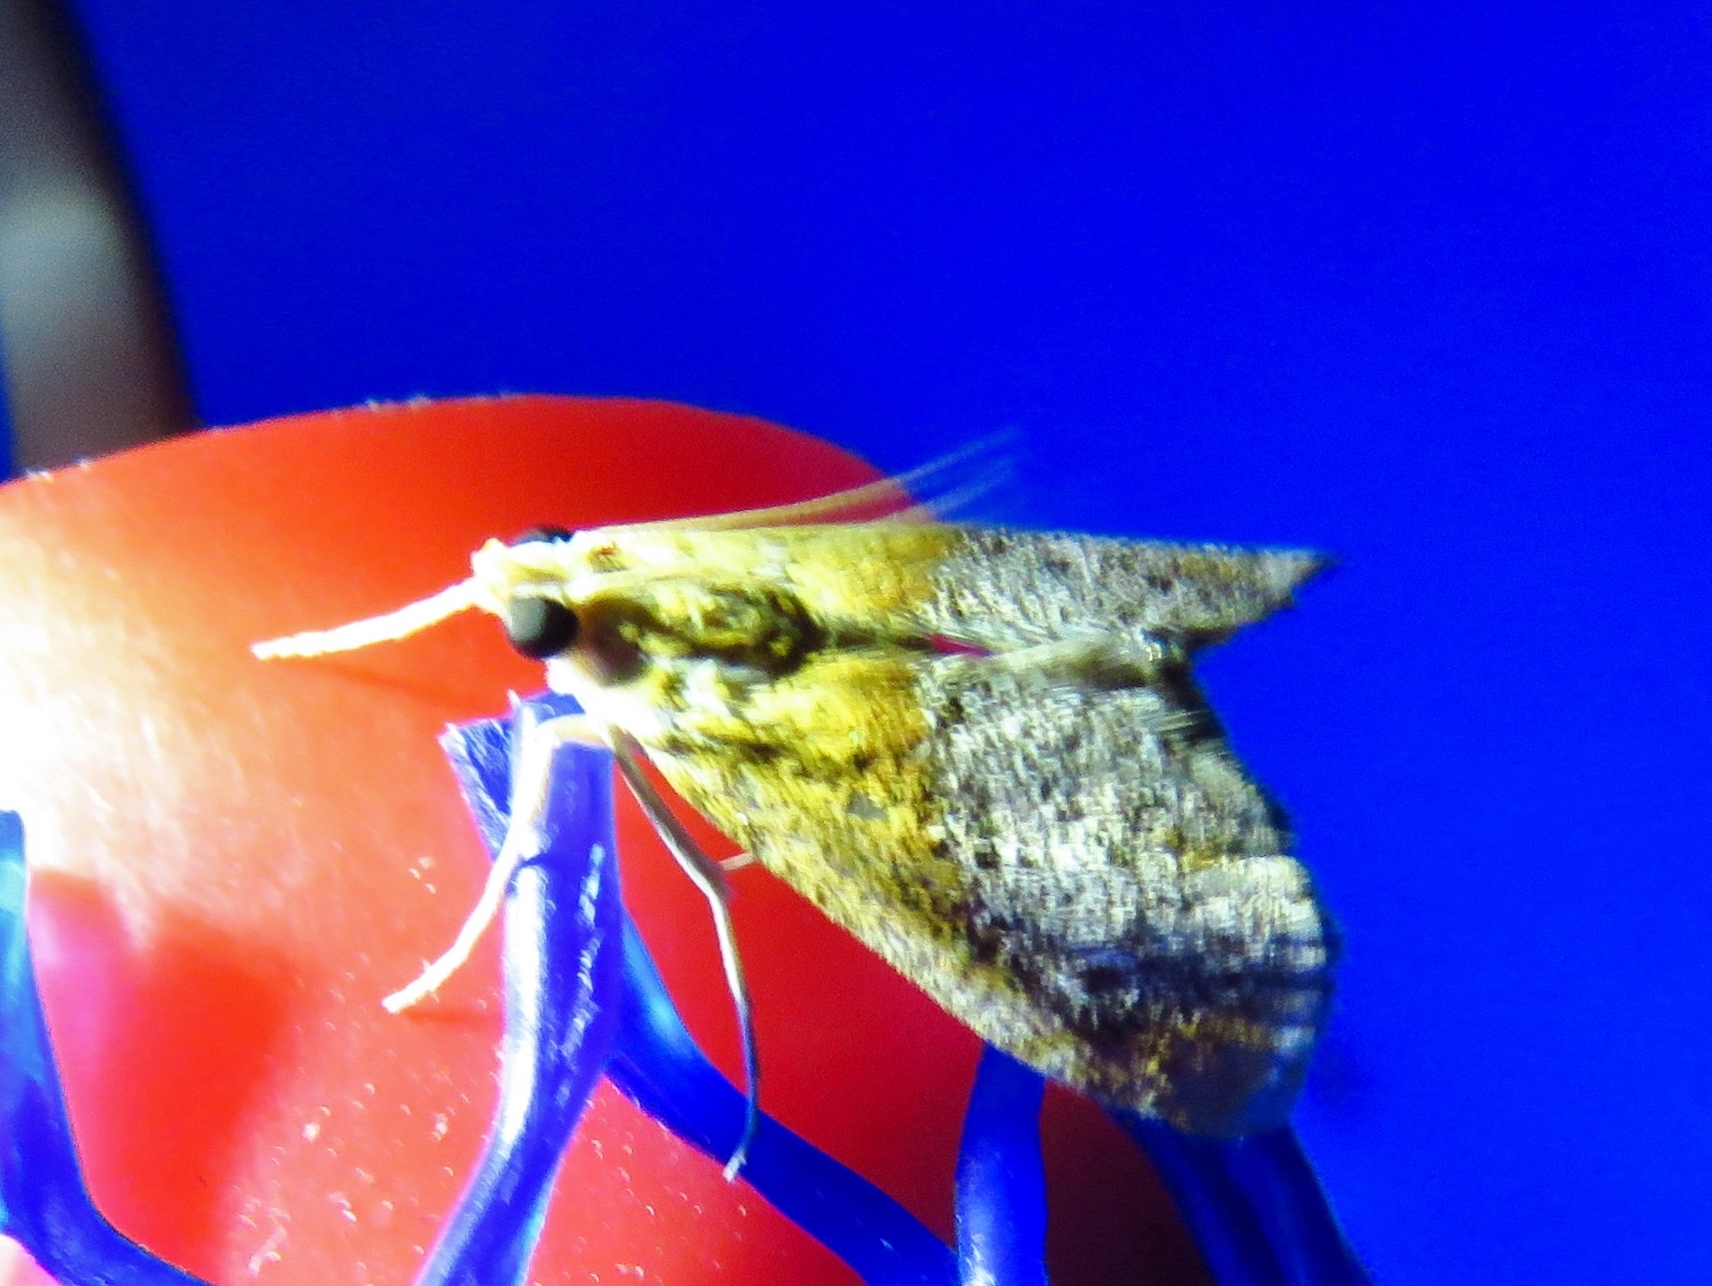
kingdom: Animalia
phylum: Arthropoda
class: Insecta
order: Lepidoptera
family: Crambidae
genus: Chalcoela
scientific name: Chalcoela iphitalis
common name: Sooty-winged chalcoela moth
